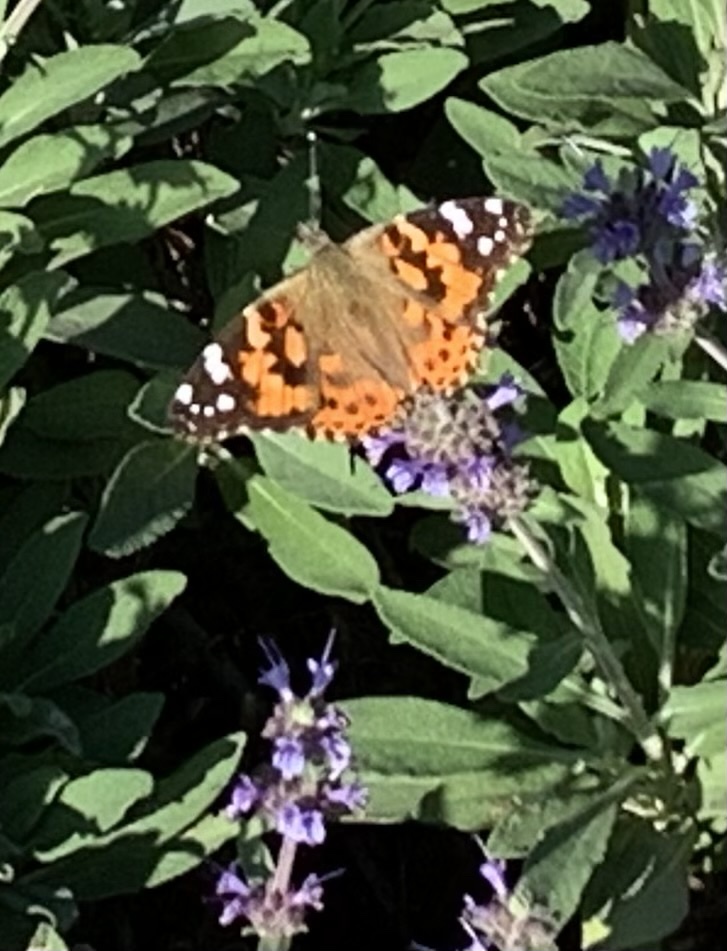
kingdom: Animalia
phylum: Arthropoda
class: Insecta
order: Lepidoptera
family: Nymphalidae
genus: Vanessa
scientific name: Vanessa cardui
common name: Painted lady
